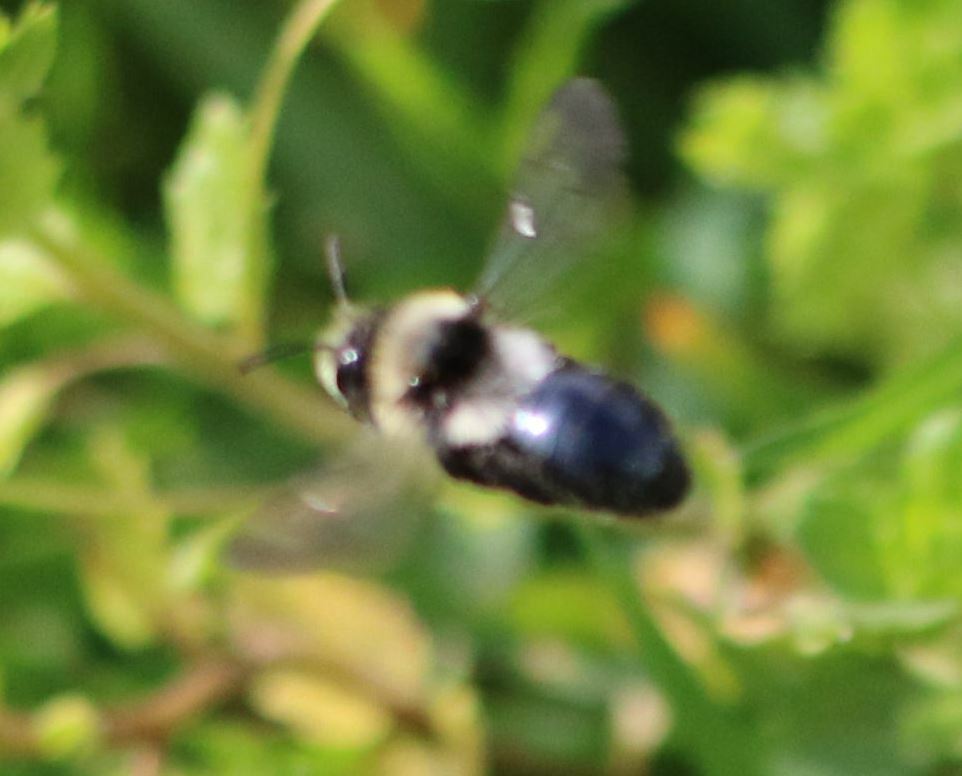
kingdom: Animalia
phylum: Arthropoda
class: Insecta
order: Hymenoptera
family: Andrenidae
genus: Andrena
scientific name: Andrena cineraria
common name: Ashy mining bee
